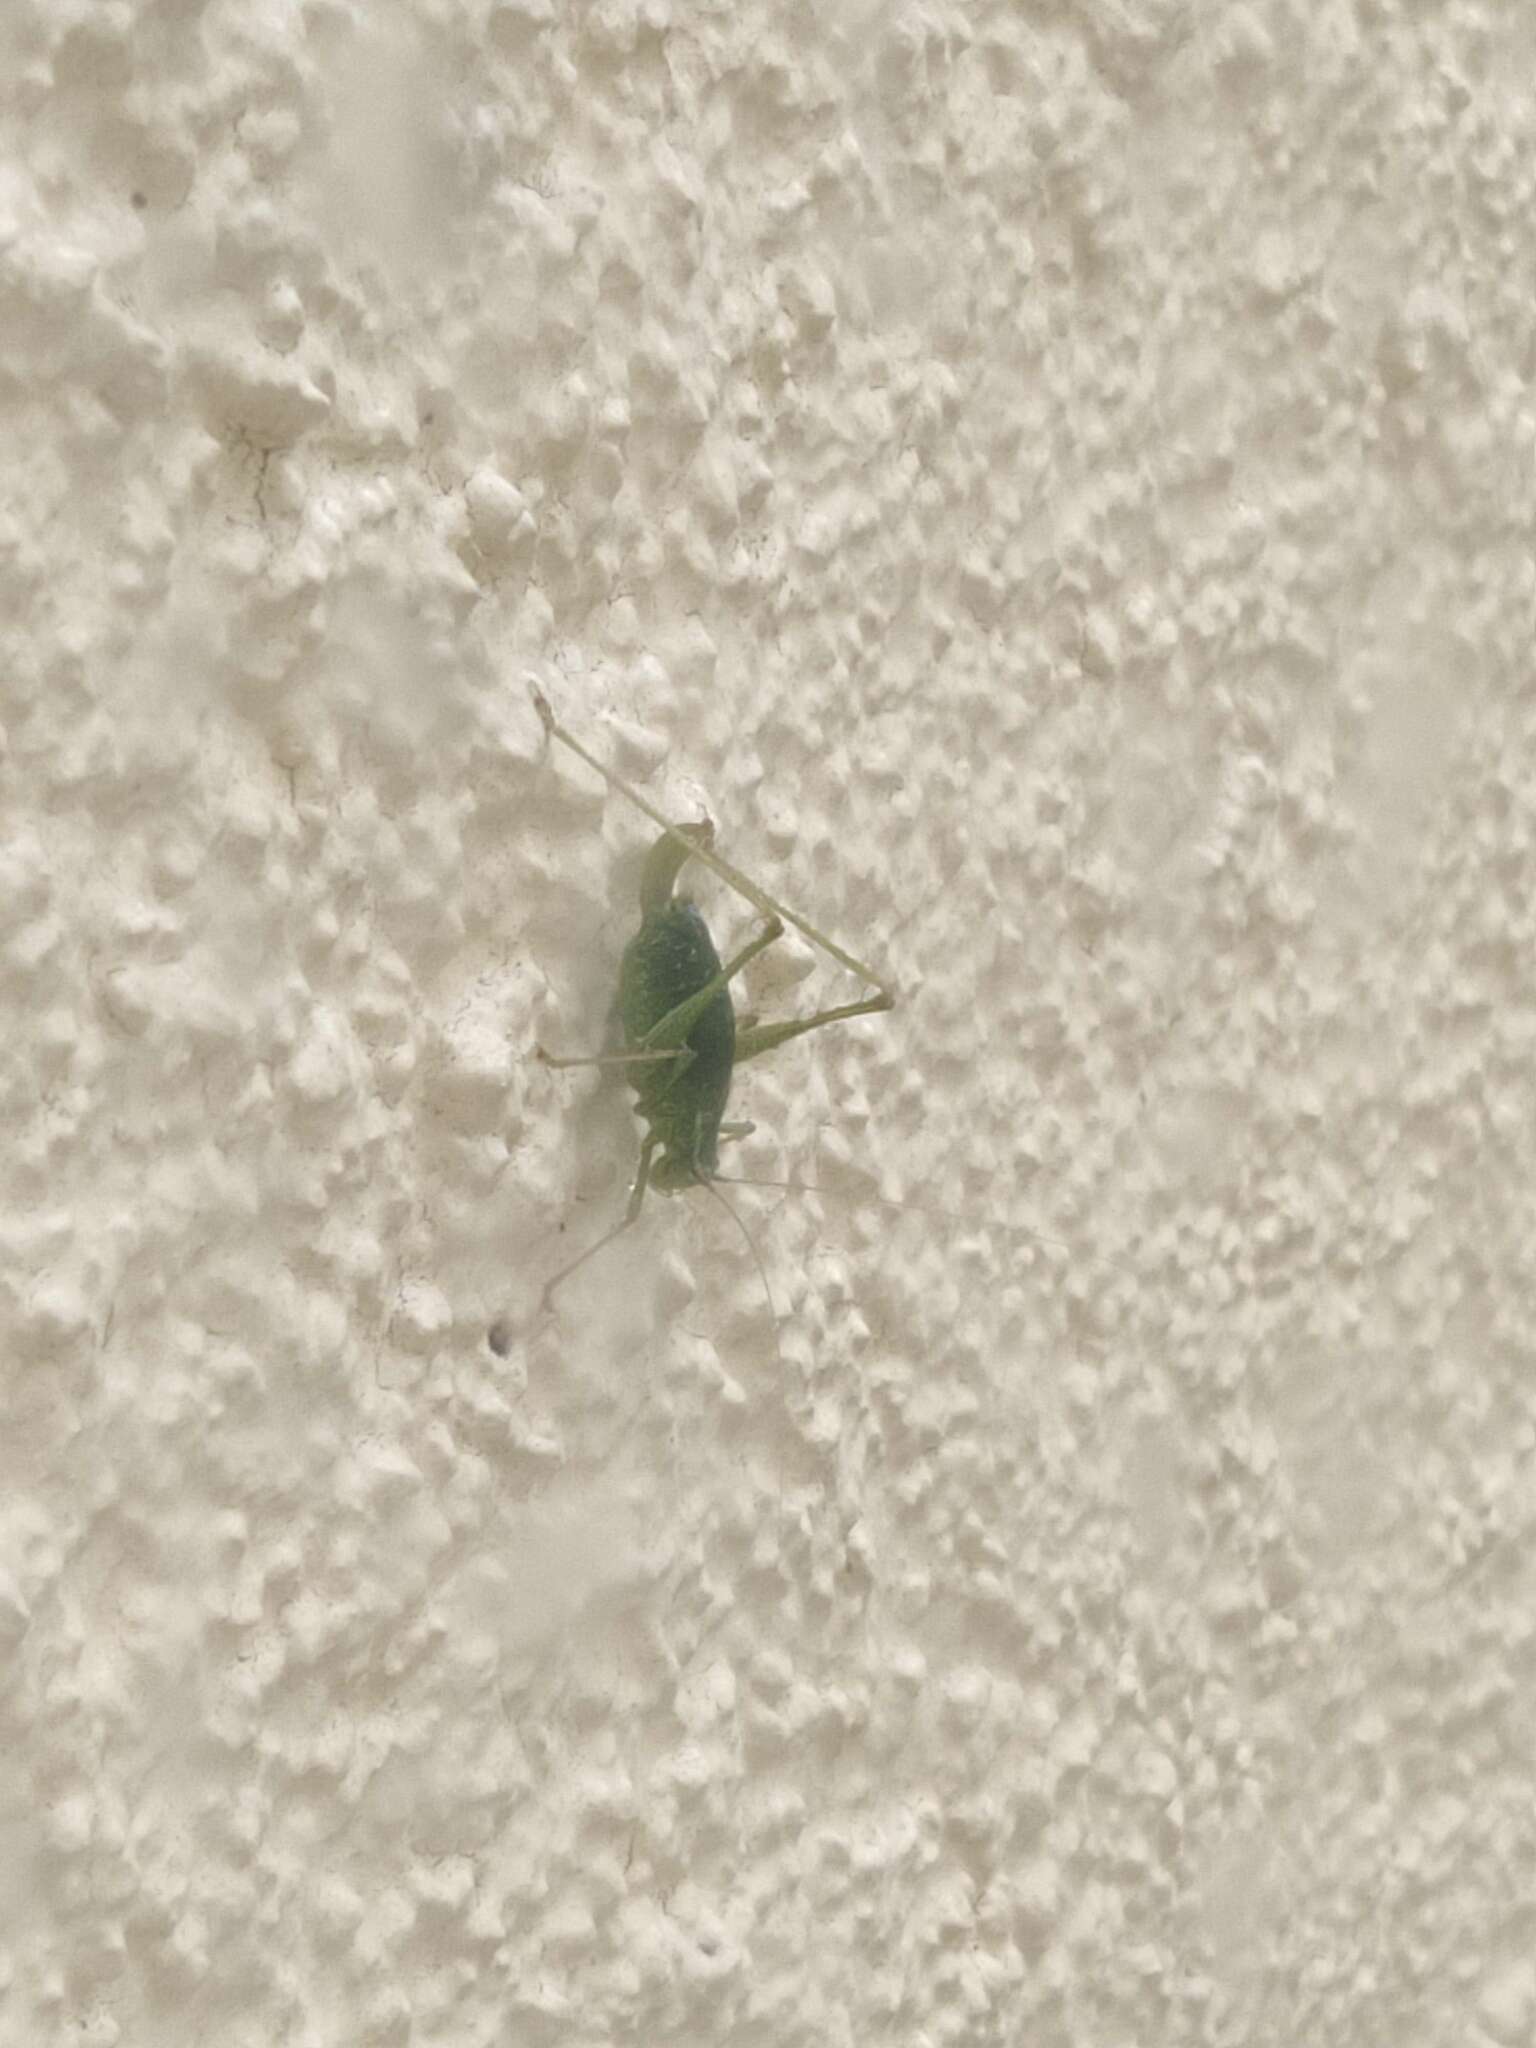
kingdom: Animalia
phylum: Arthropoda
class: Insecta
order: Orthoptera
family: Tettigoniidae
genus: Leptophyes
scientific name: Leptophyes punctatissima
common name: Speckled bush-cricket
